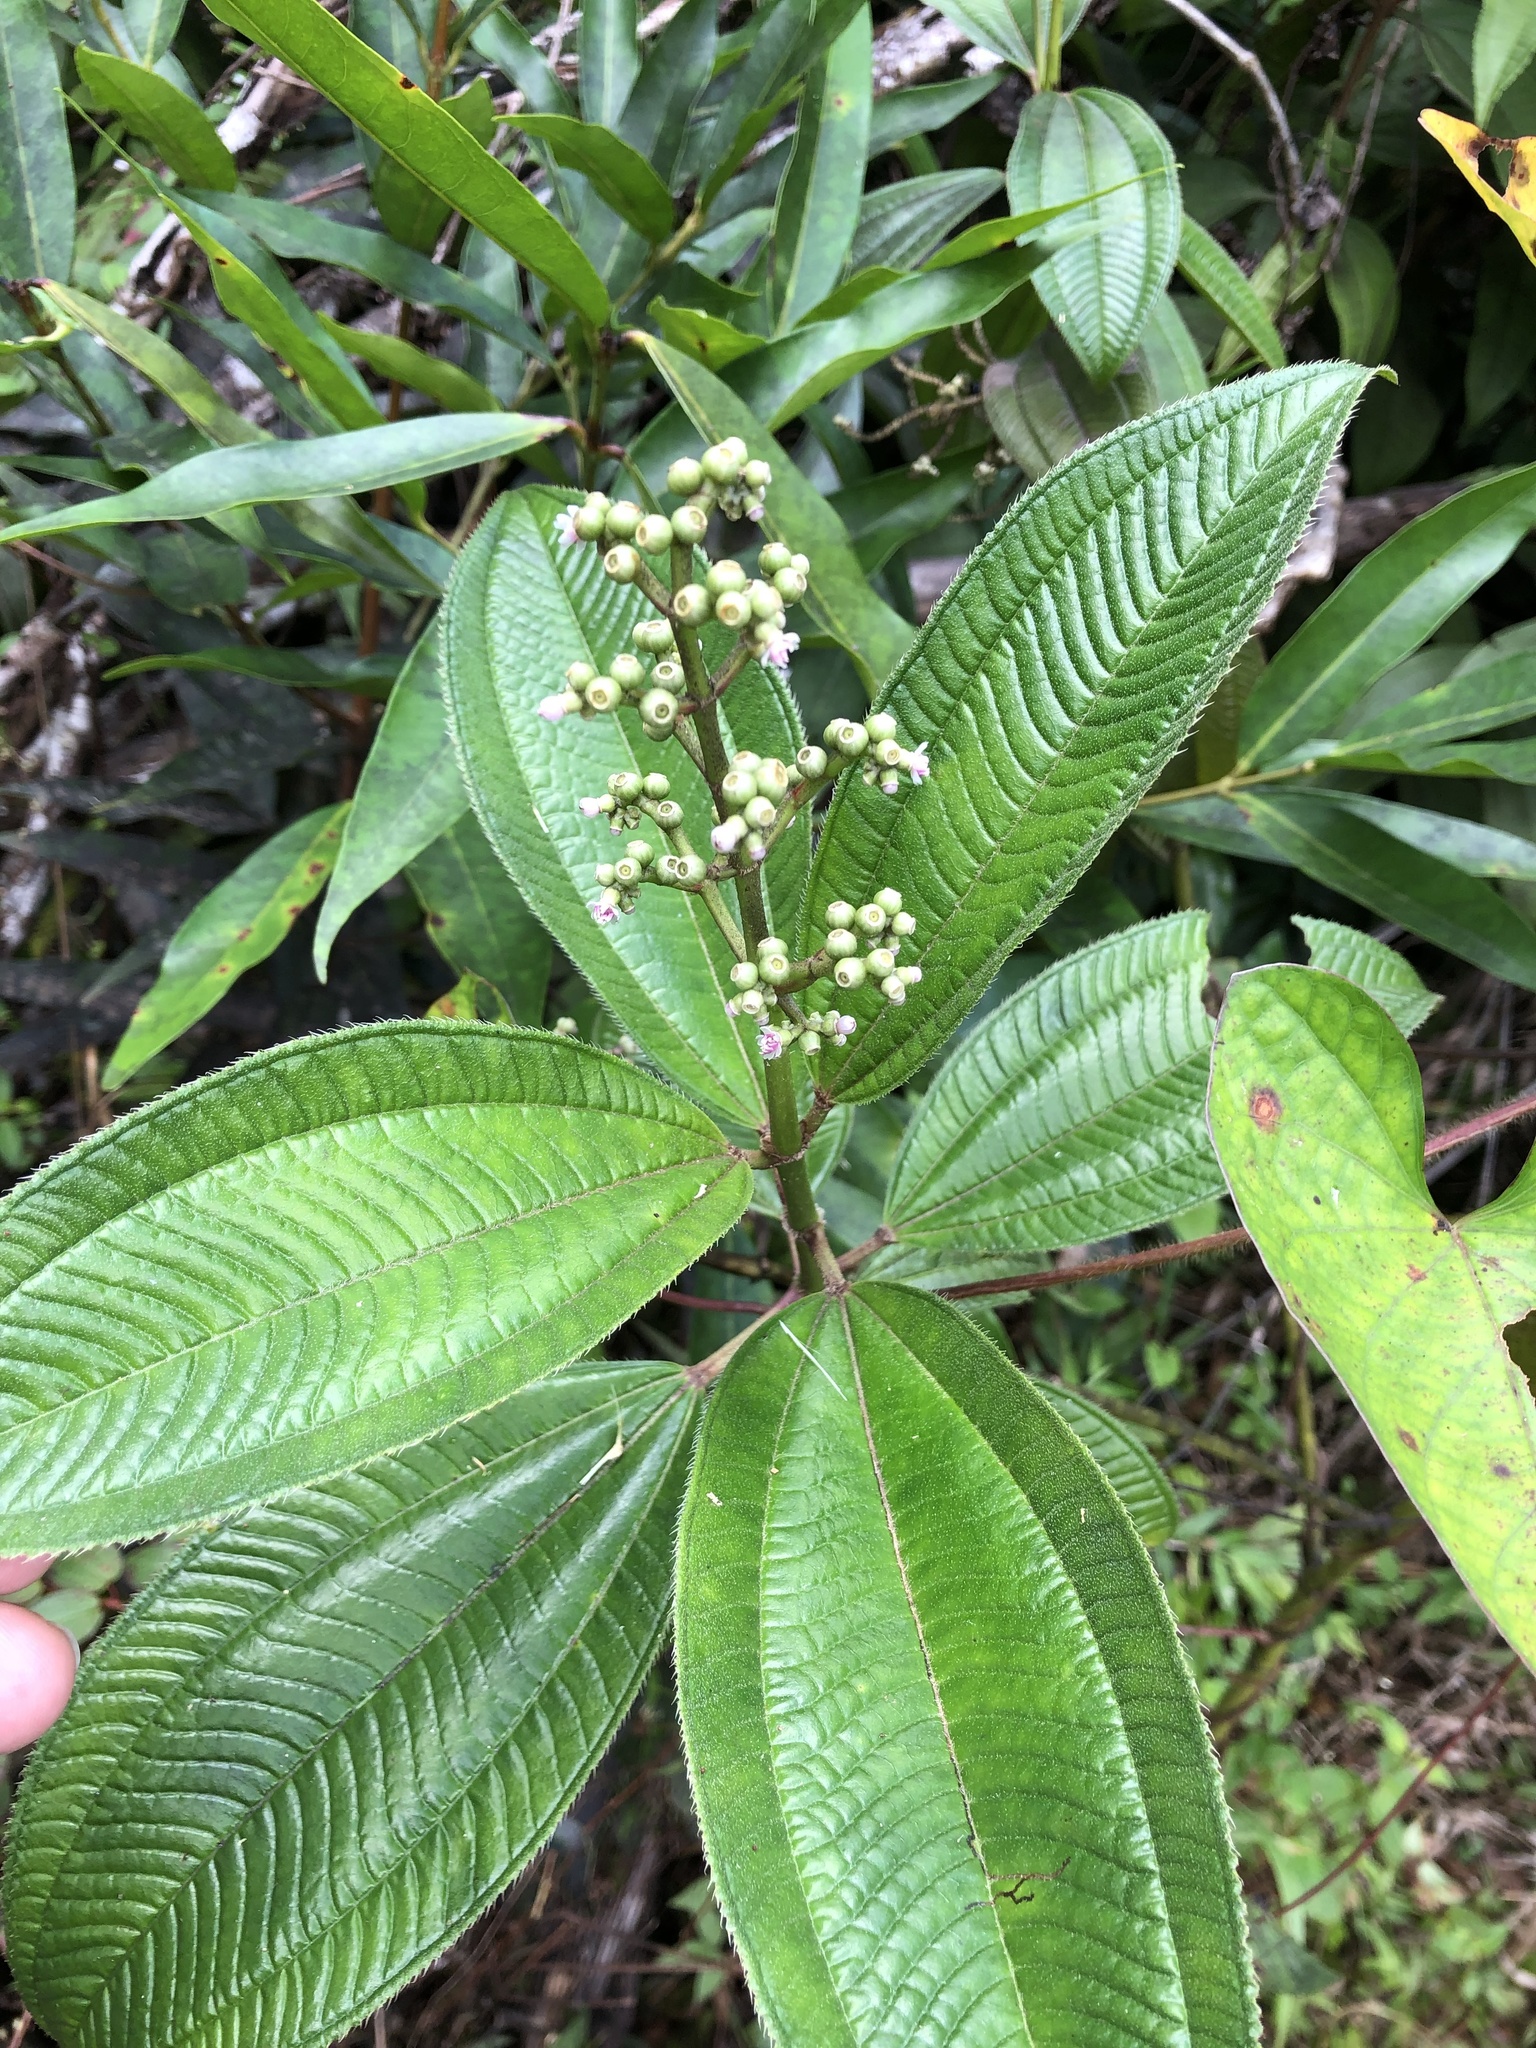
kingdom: Plantae
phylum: Tracheophyta
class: Magnoliopsida
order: Myrtales
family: Melastomataceae
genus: Miconia
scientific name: Miconia racemosa
